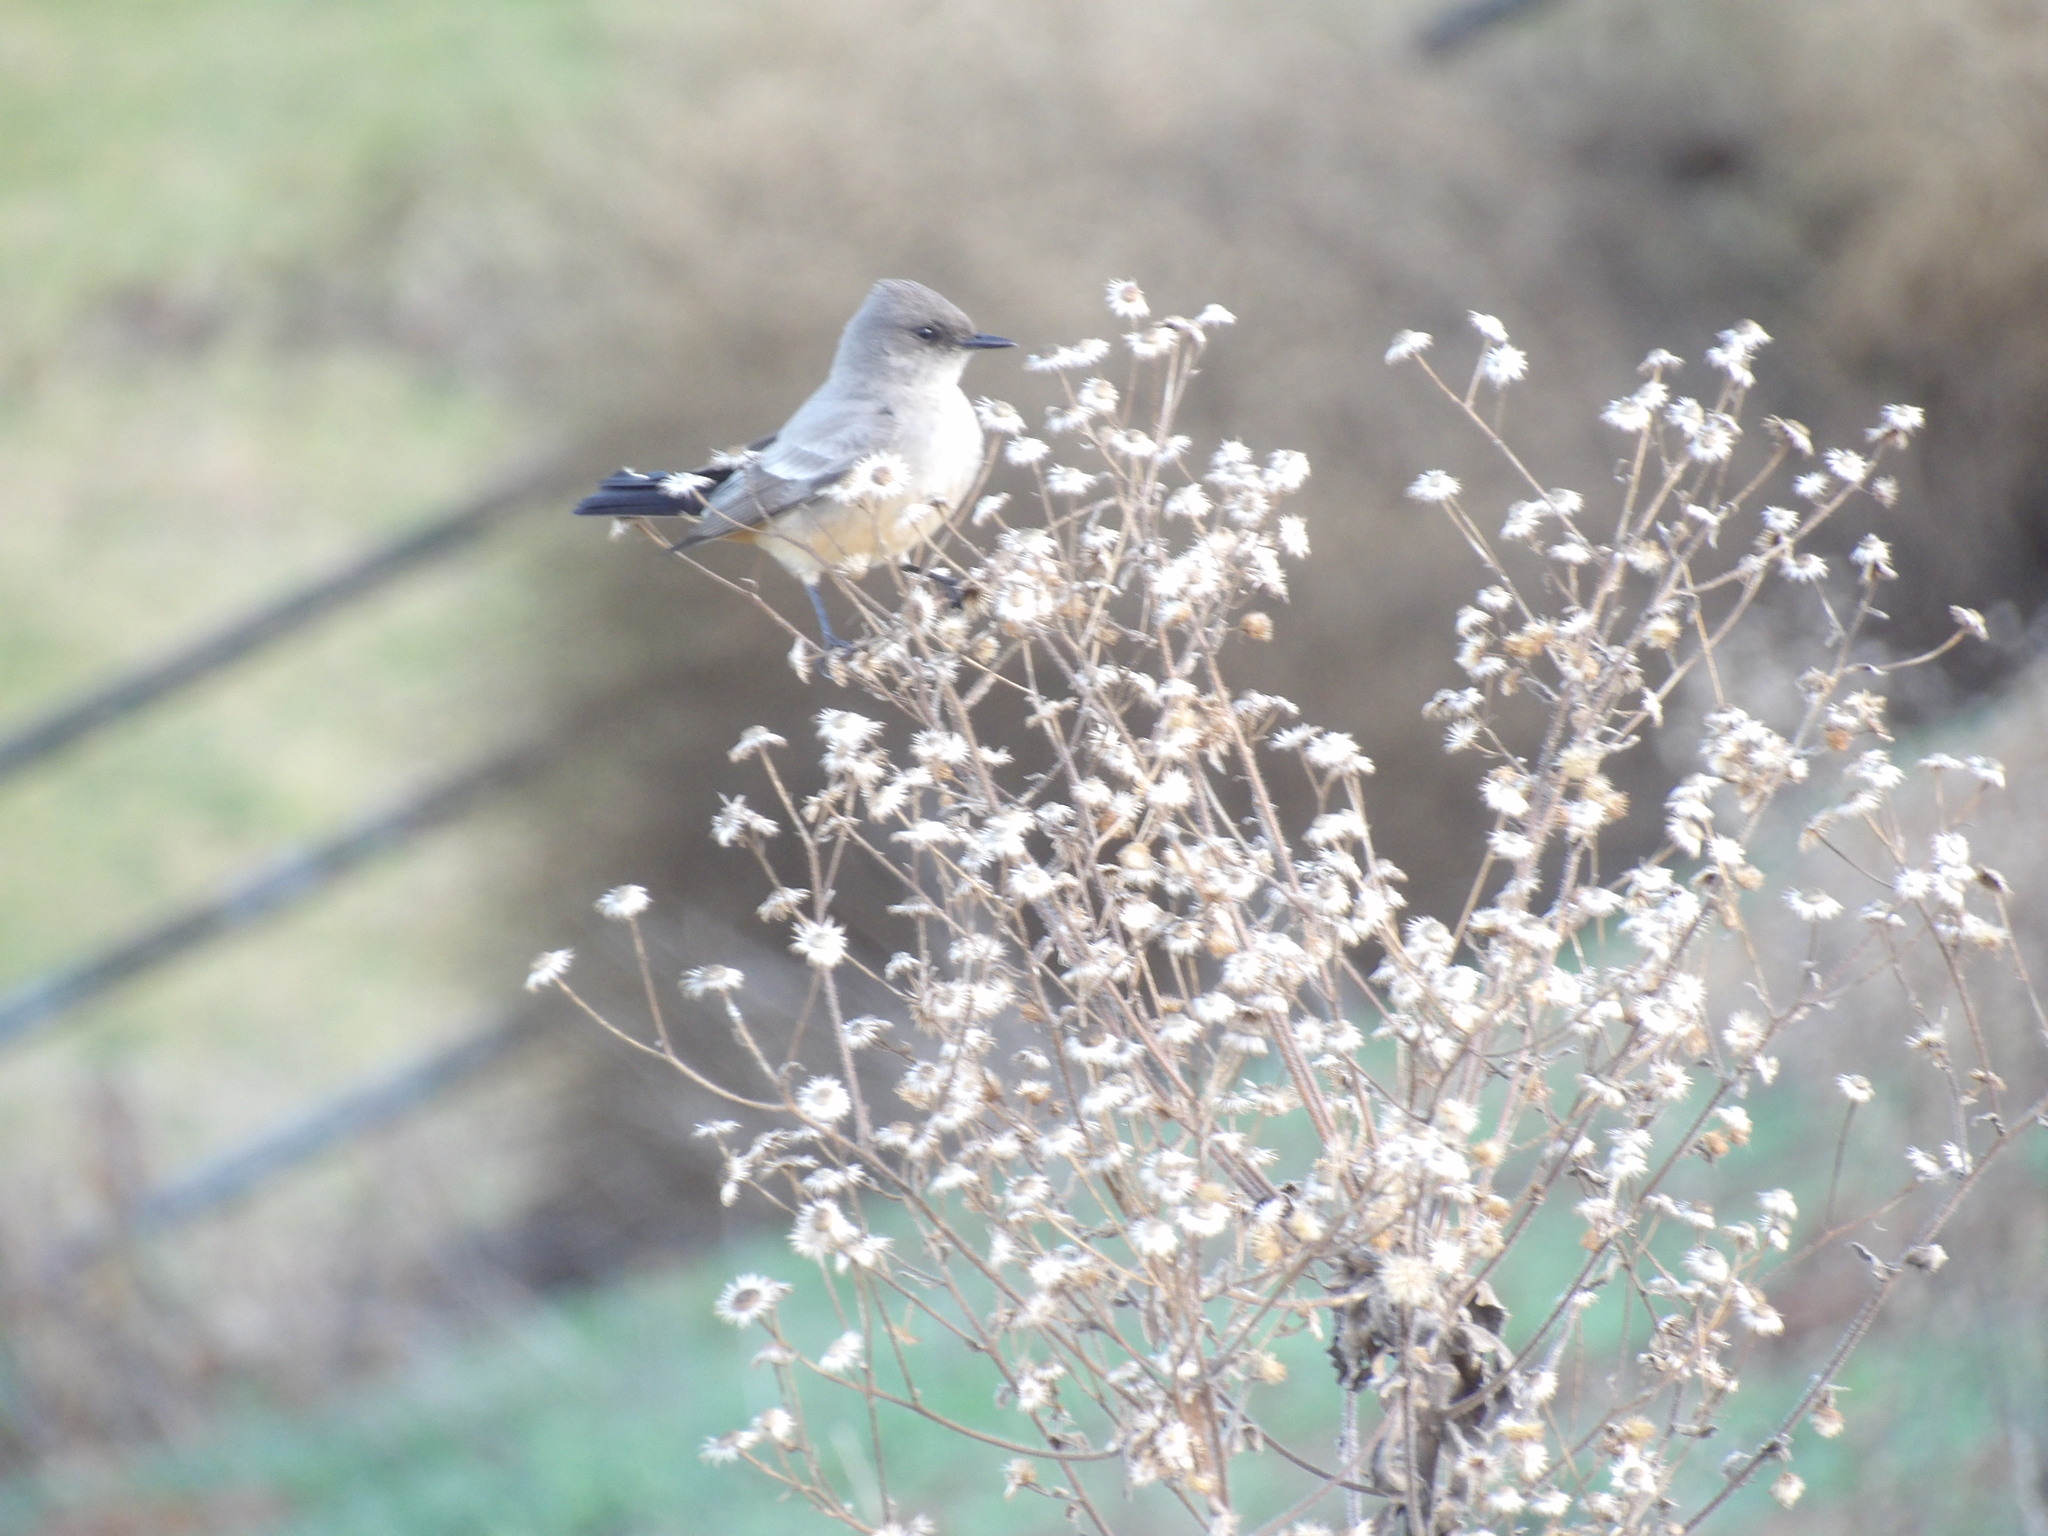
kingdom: Animalia
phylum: Chordata
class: Aves
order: Passeriformes
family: Tyrannidae
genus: Sayornis
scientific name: Sayornis saya
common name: Say's phoebe
